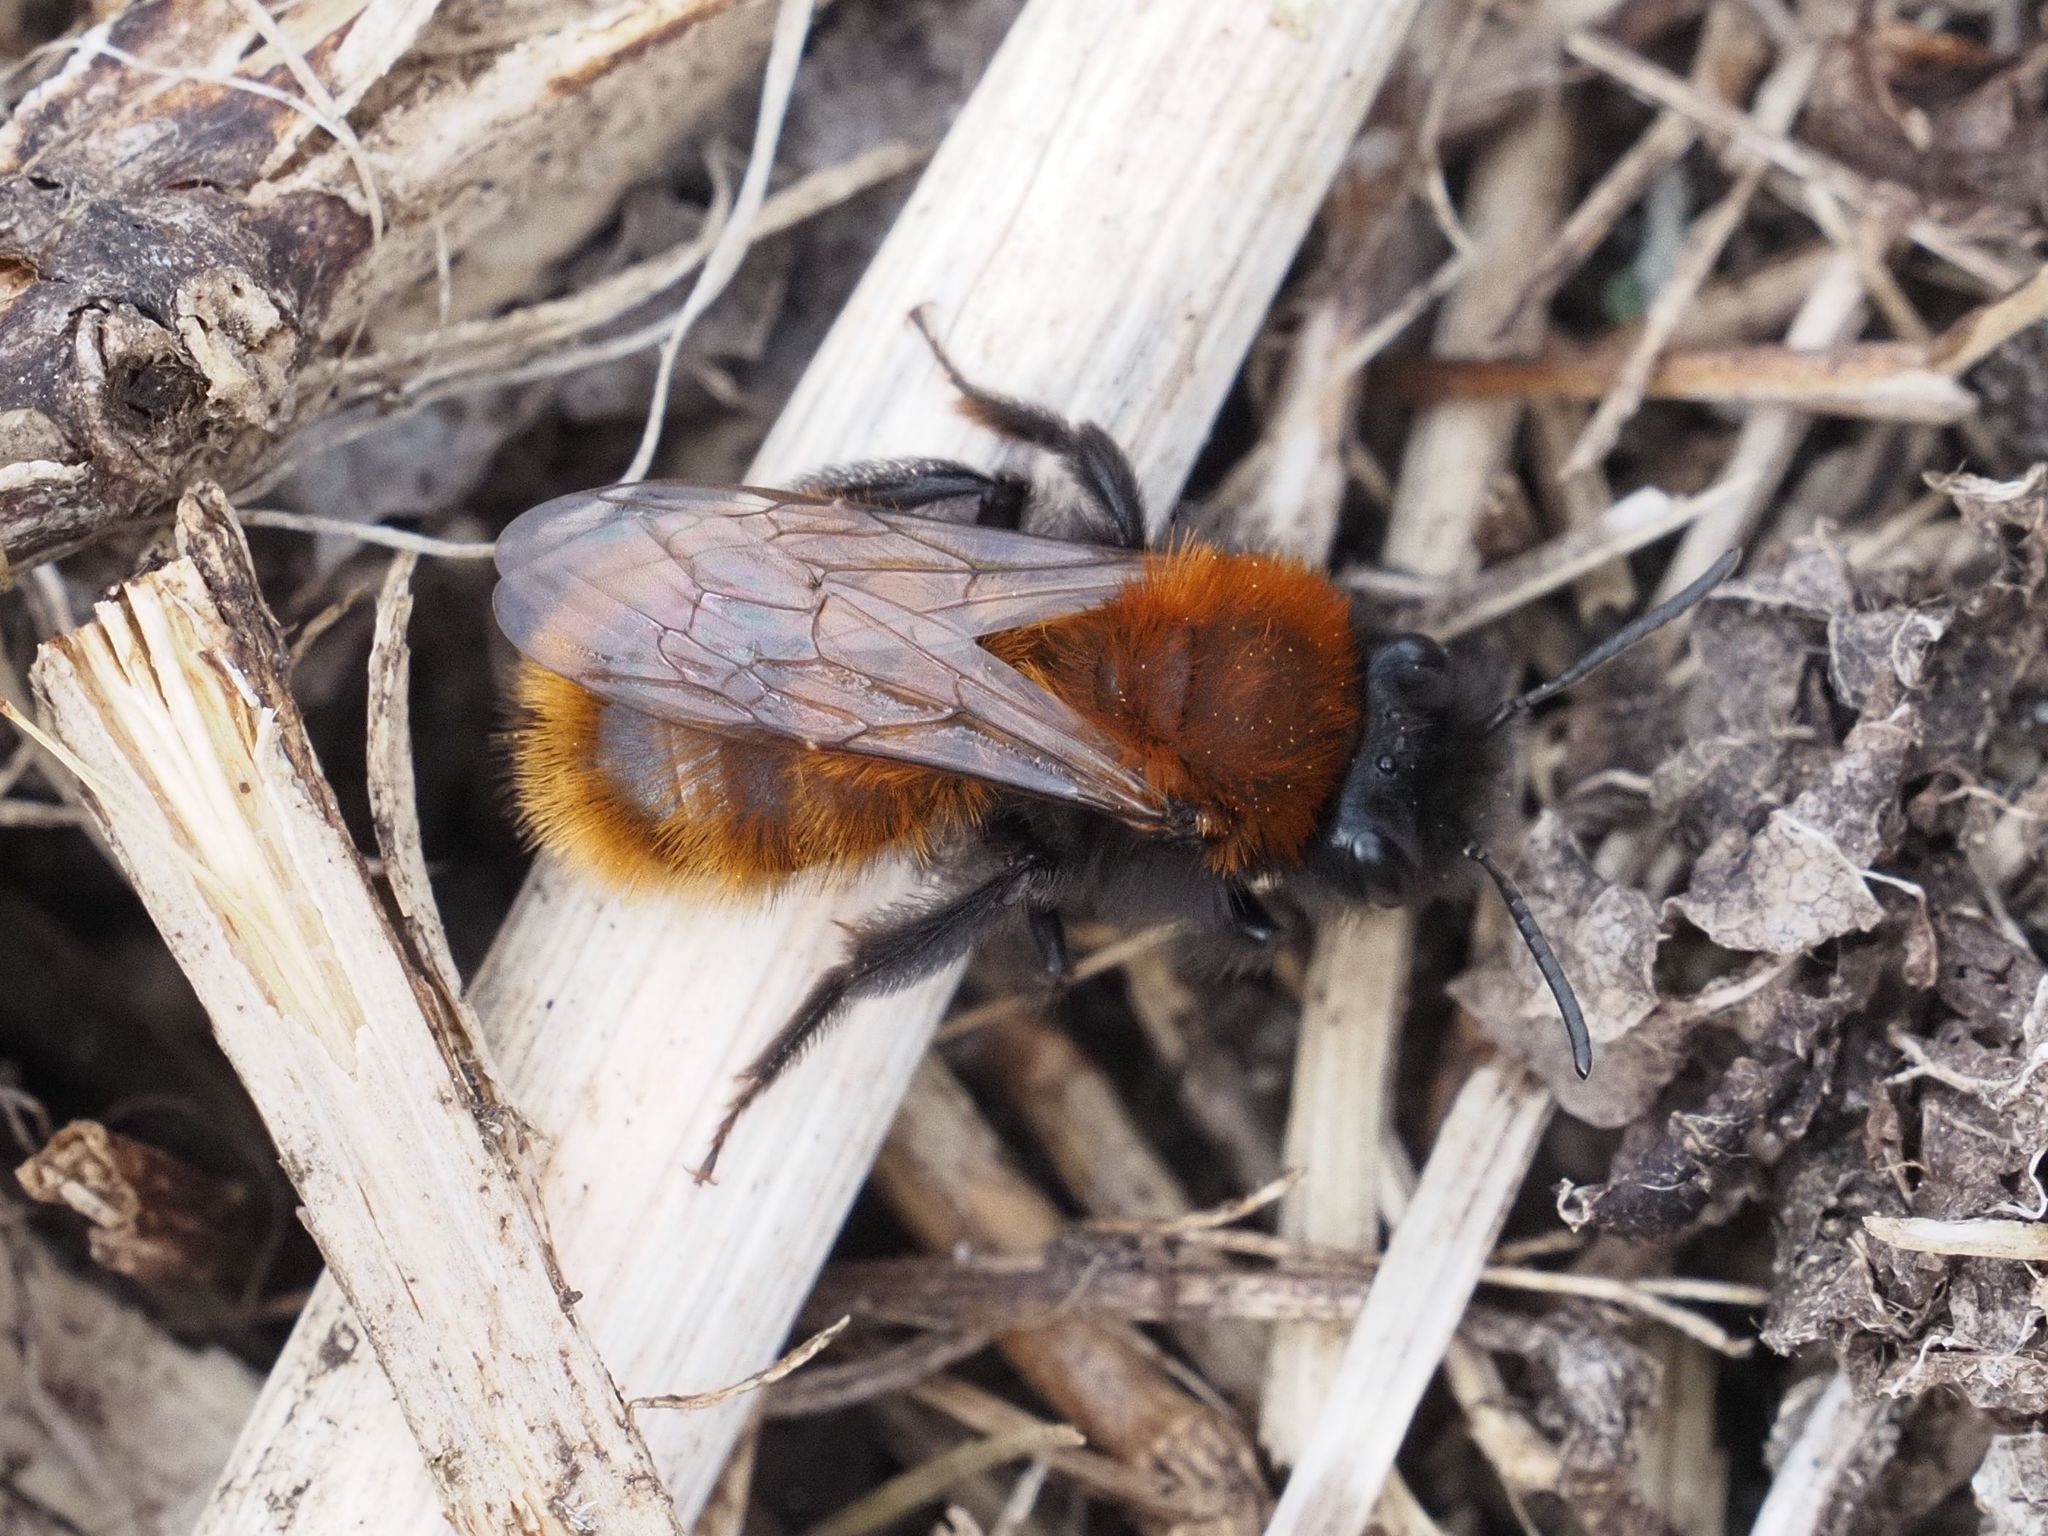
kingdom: Animalia
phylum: Arthropoda
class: Insecta
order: Hymenoptera
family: Andrenidae
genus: Andrena
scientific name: Andrena fulva
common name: Tawny mining bee
